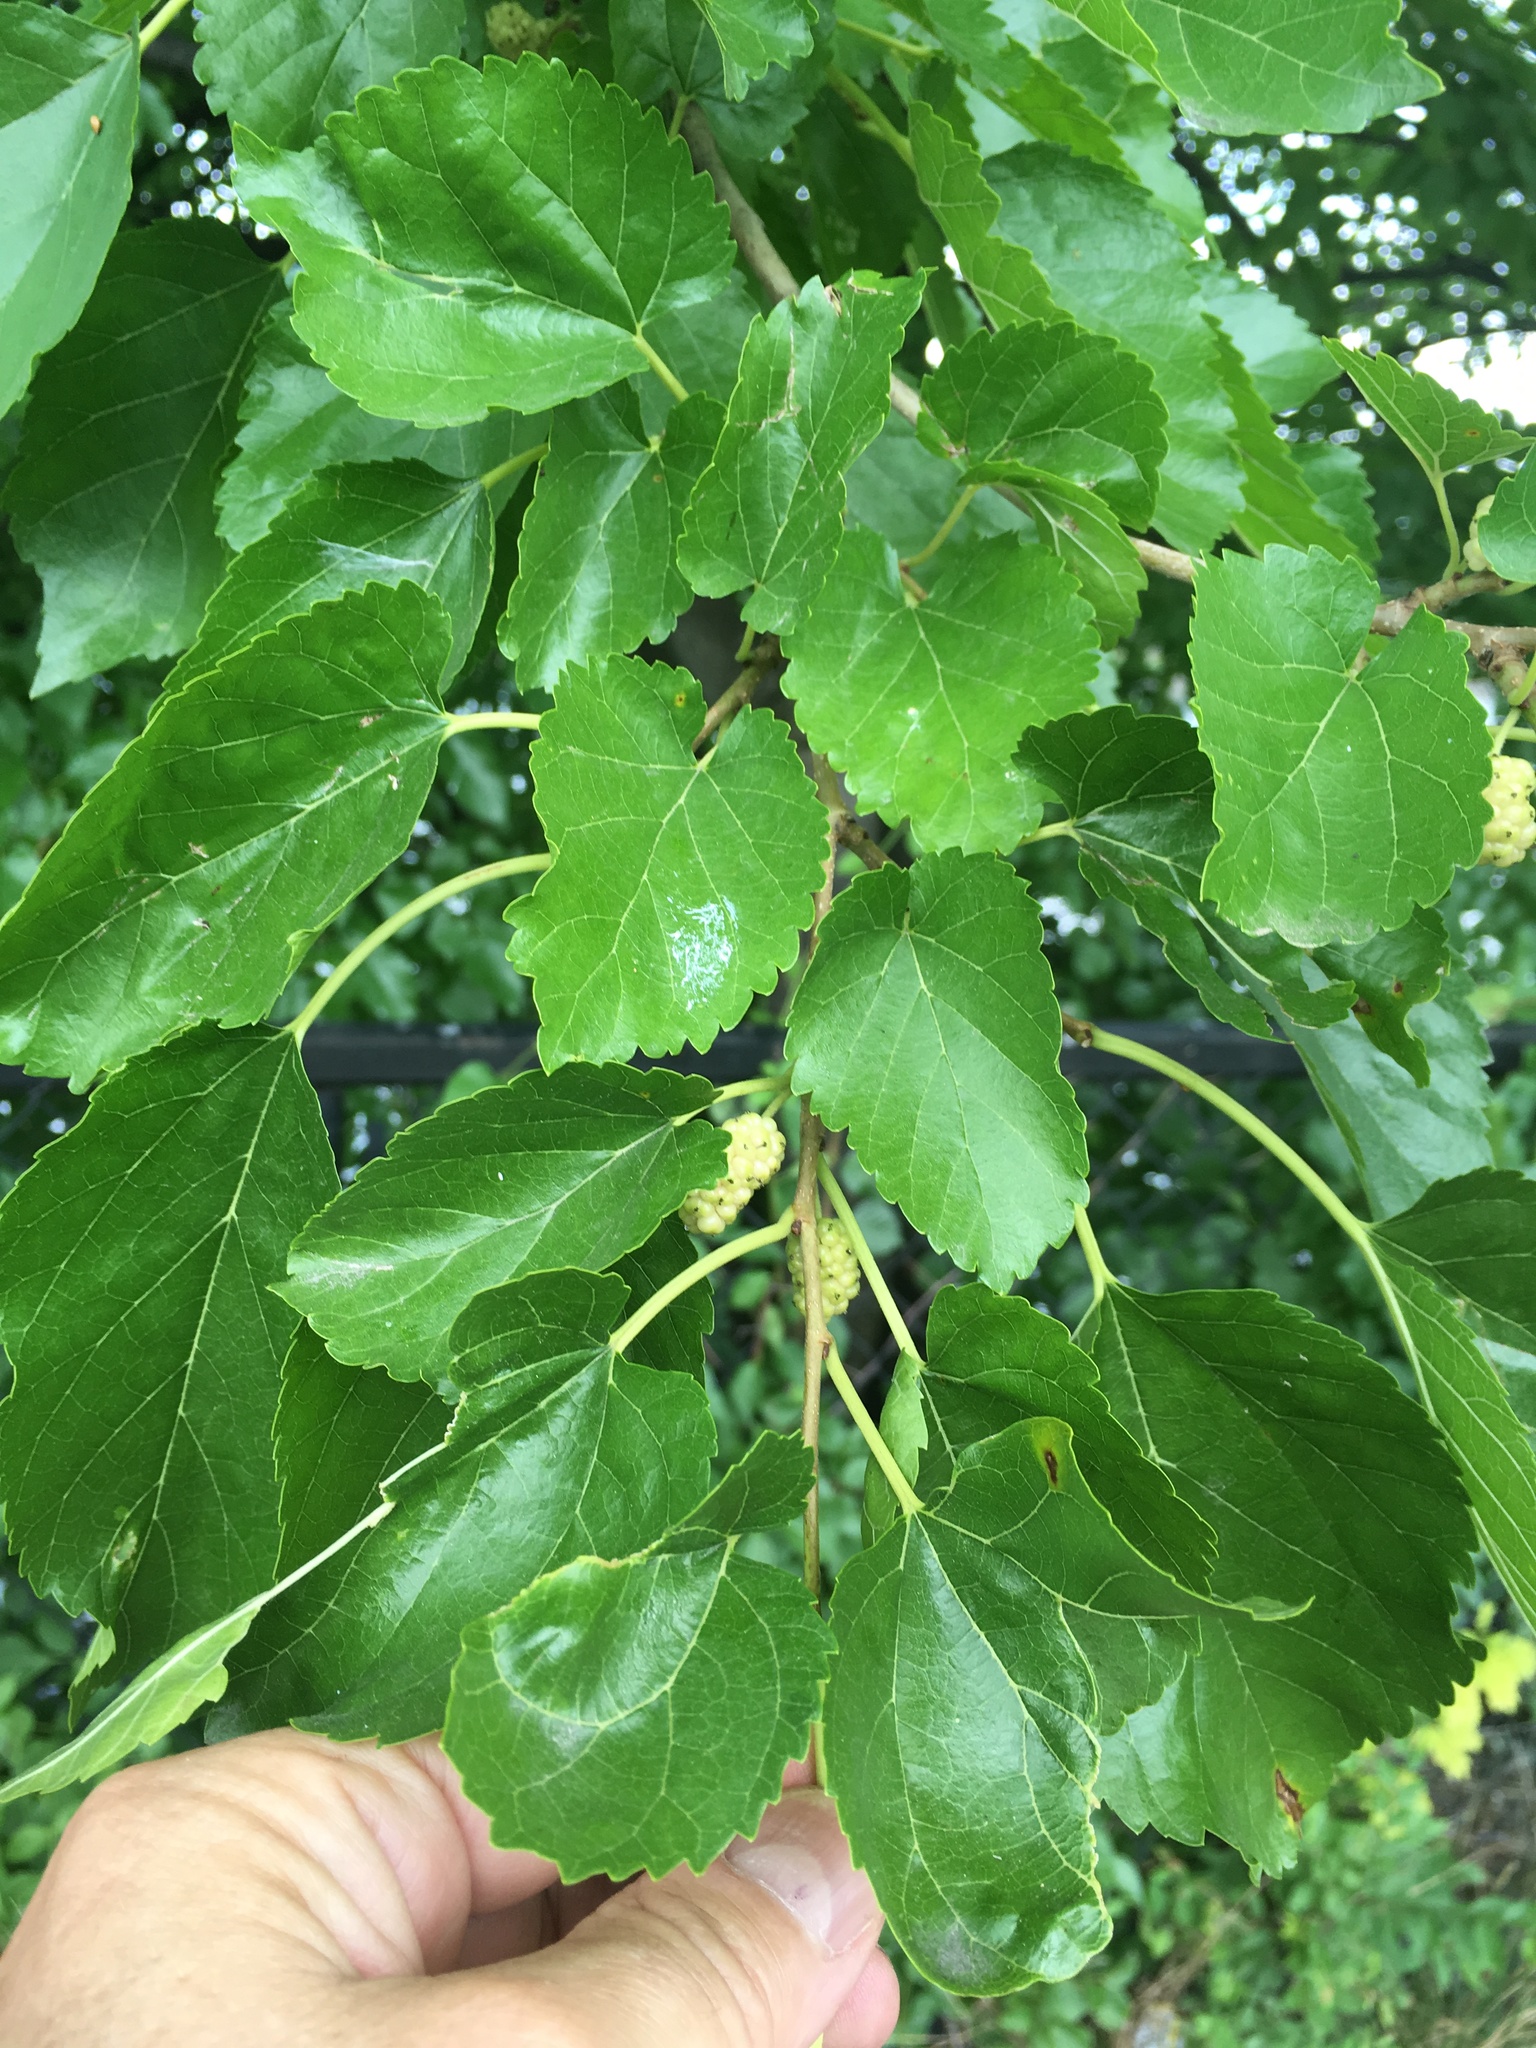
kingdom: Plantae
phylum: Tracheophyta
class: Magnoliopsida
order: Rosales
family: Moraceae
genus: Morus
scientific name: Morus alba
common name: White mulberry
